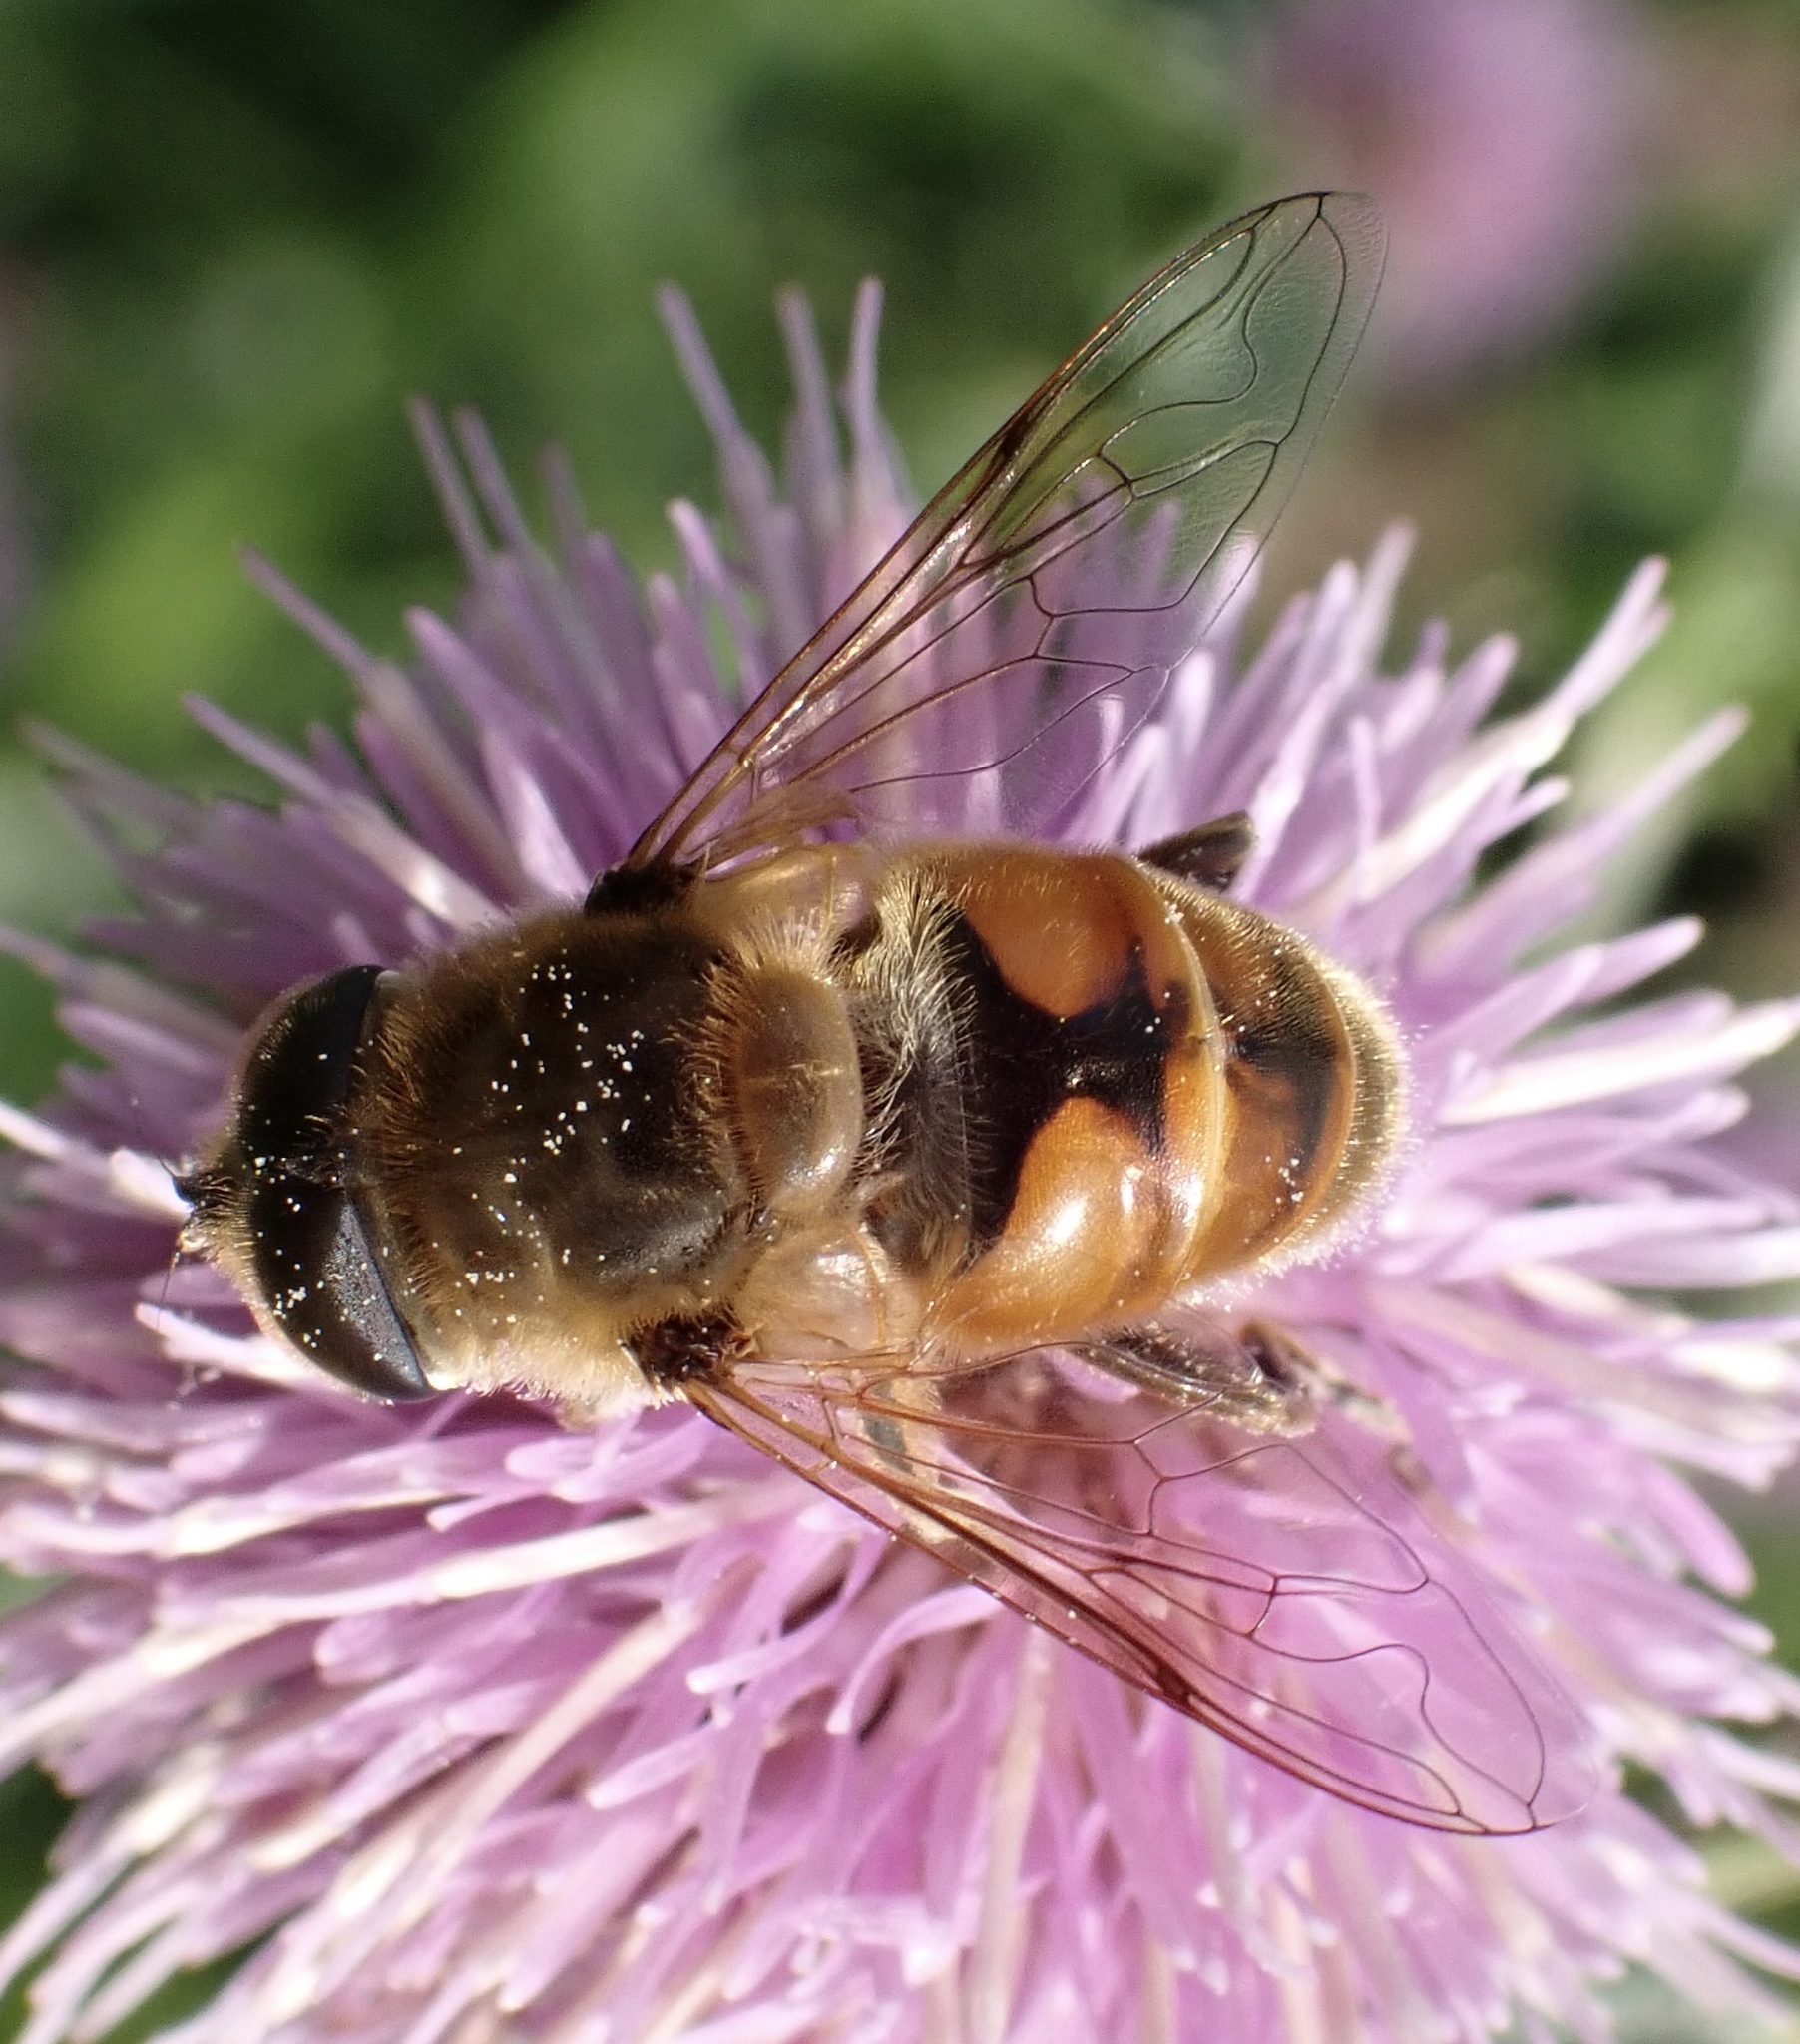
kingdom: Animalia
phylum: Arthropoda
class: Insecta
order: Diptera
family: Syrphidae
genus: Eristalis
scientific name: Eristalis tenax
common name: Drone fly
